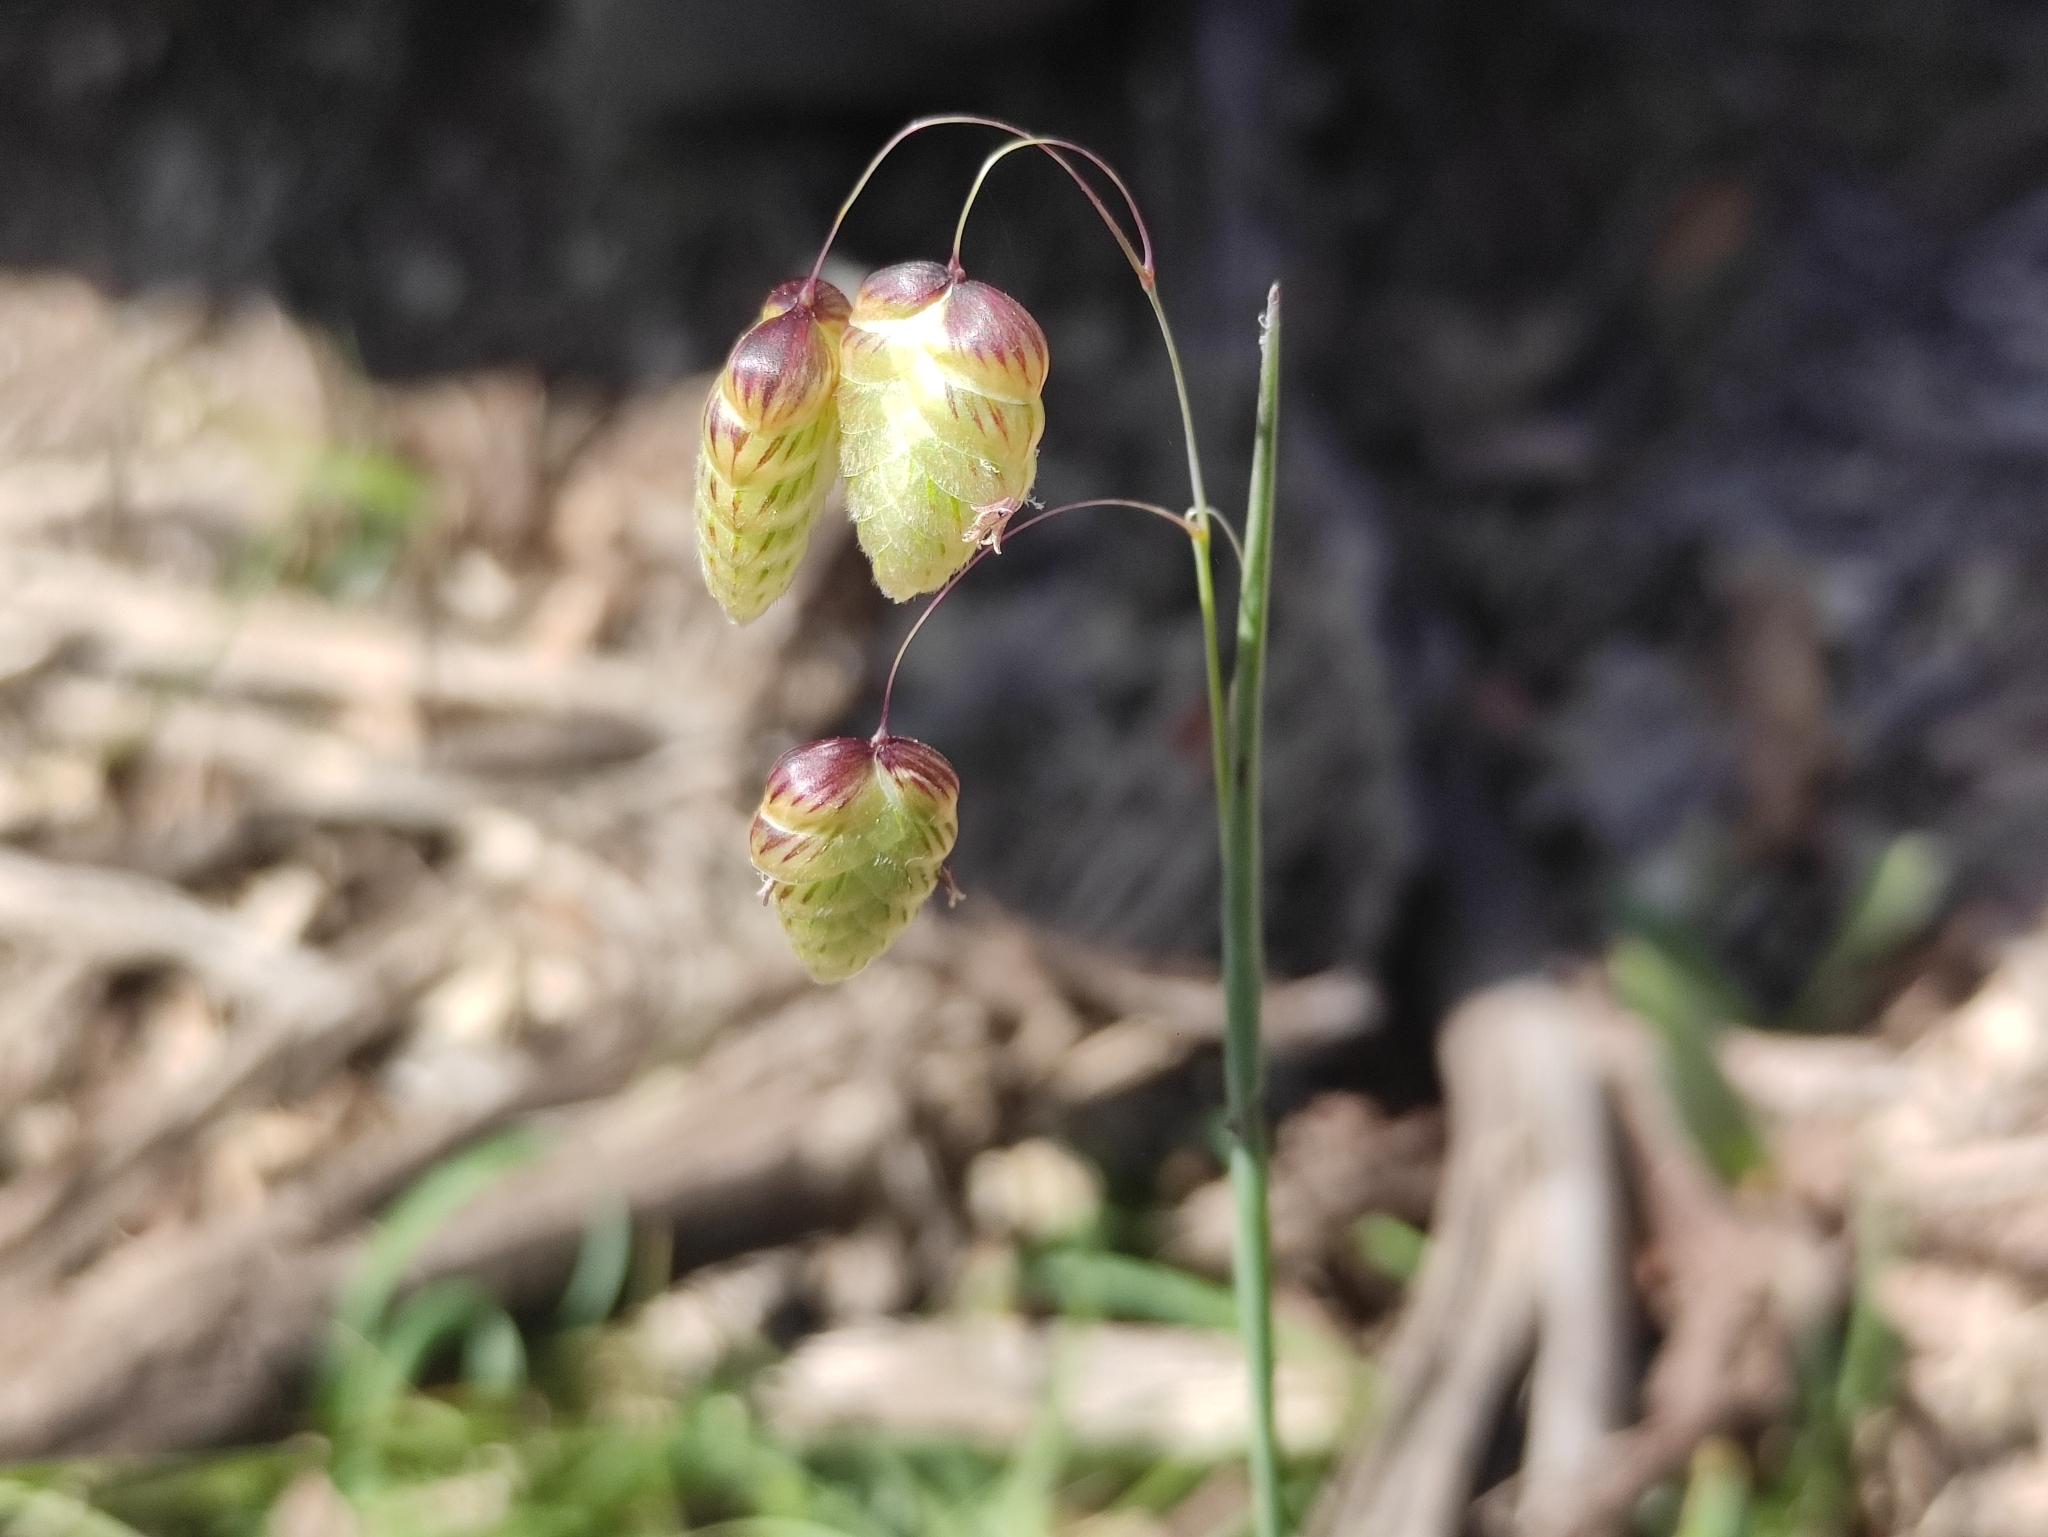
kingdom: Plantae
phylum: Tracheophyta
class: Liliopsida
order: Poales
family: Poaceae
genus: Briza
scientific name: Briza maxima
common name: Big quakinggrass
